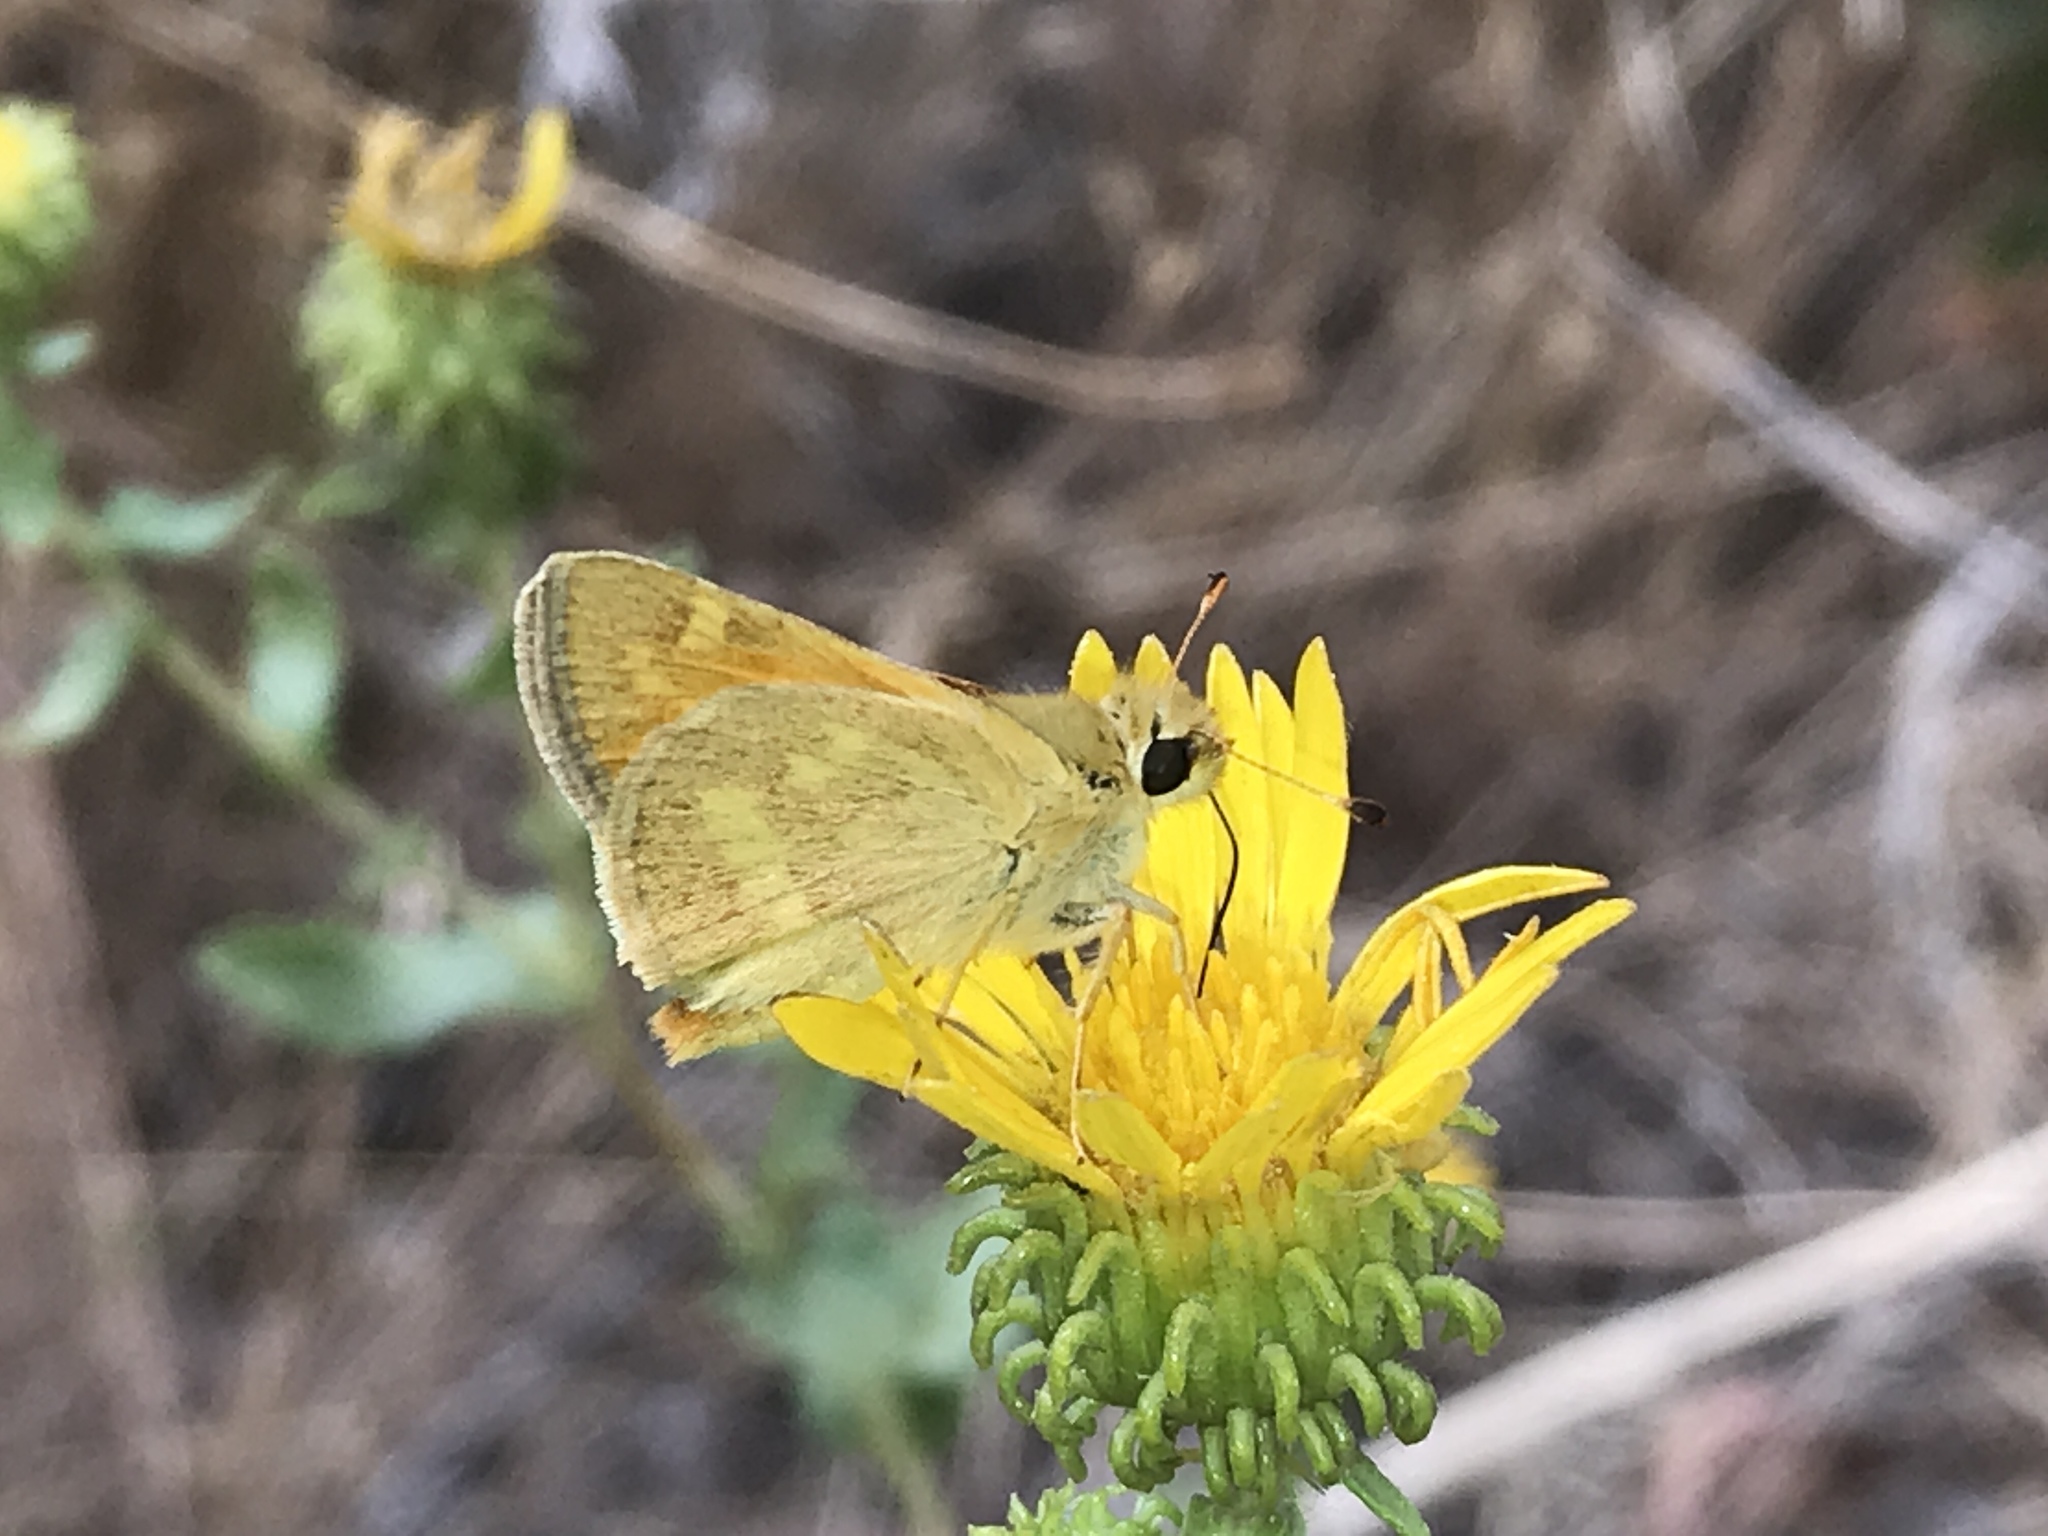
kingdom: Animalia
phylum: Arthropoda
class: Insecta
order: Lepidoptera
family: Hesperiidae
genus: Ochlodes
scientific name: Ochlodes sylvanoides
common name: Woodland skipper
